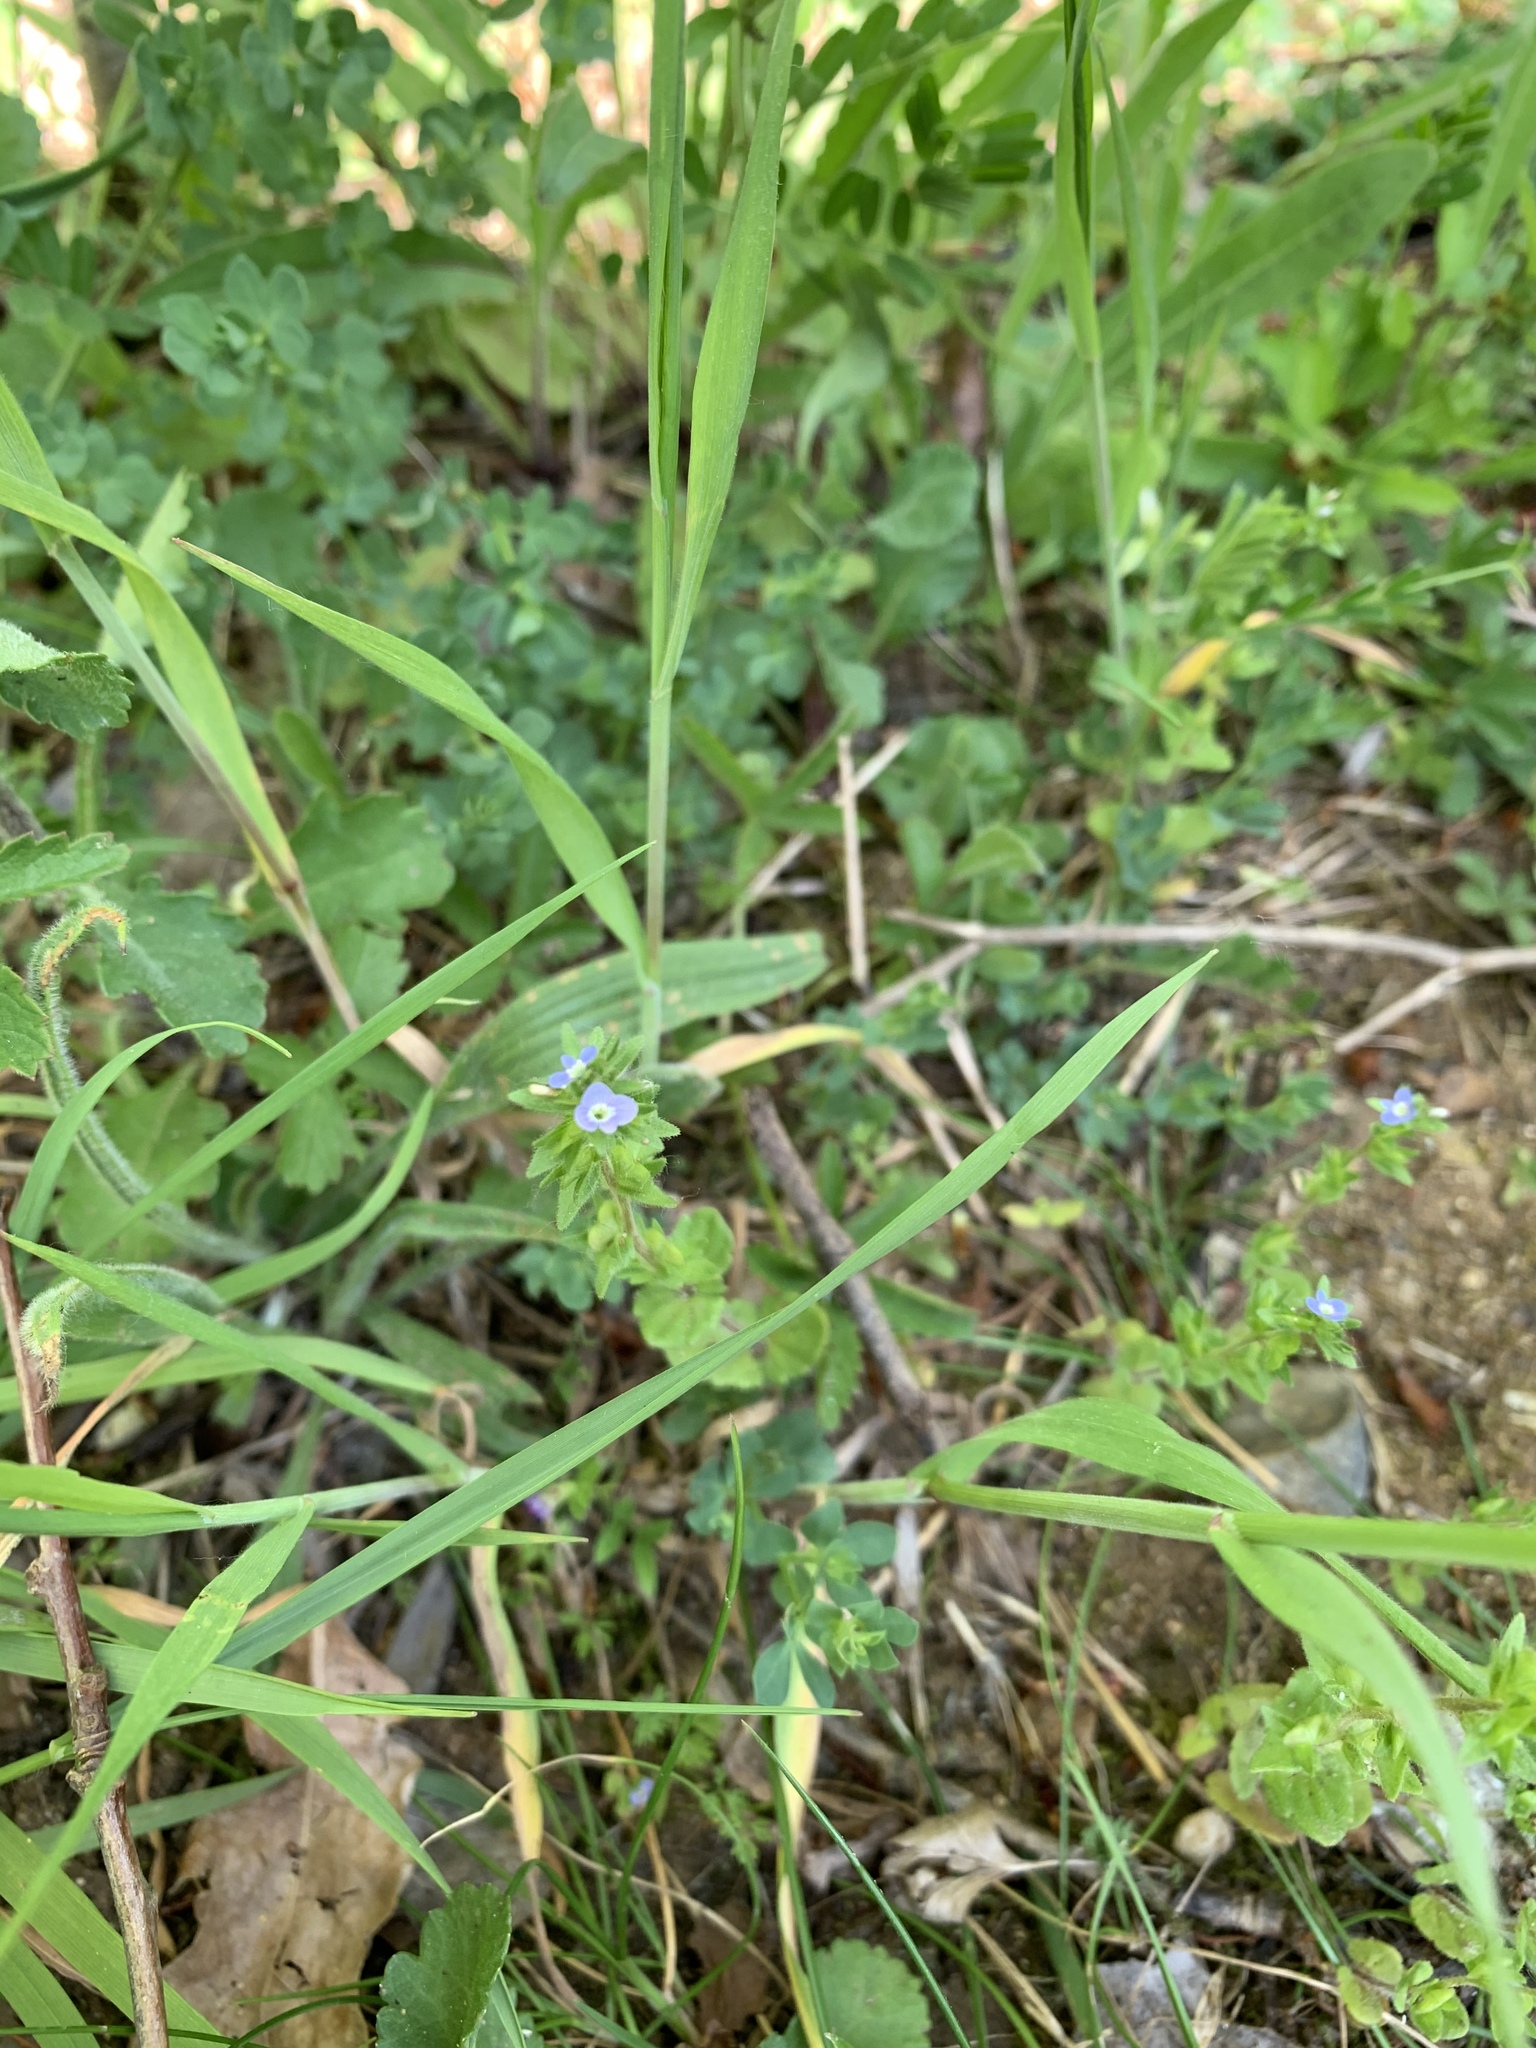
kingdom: Plantae
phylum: Tracheophyta
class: Magnoliopsida
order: Lamiales
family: Plantaginaceae
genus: Veronica
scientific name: Veronica arvensis
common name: Corn speedwell
